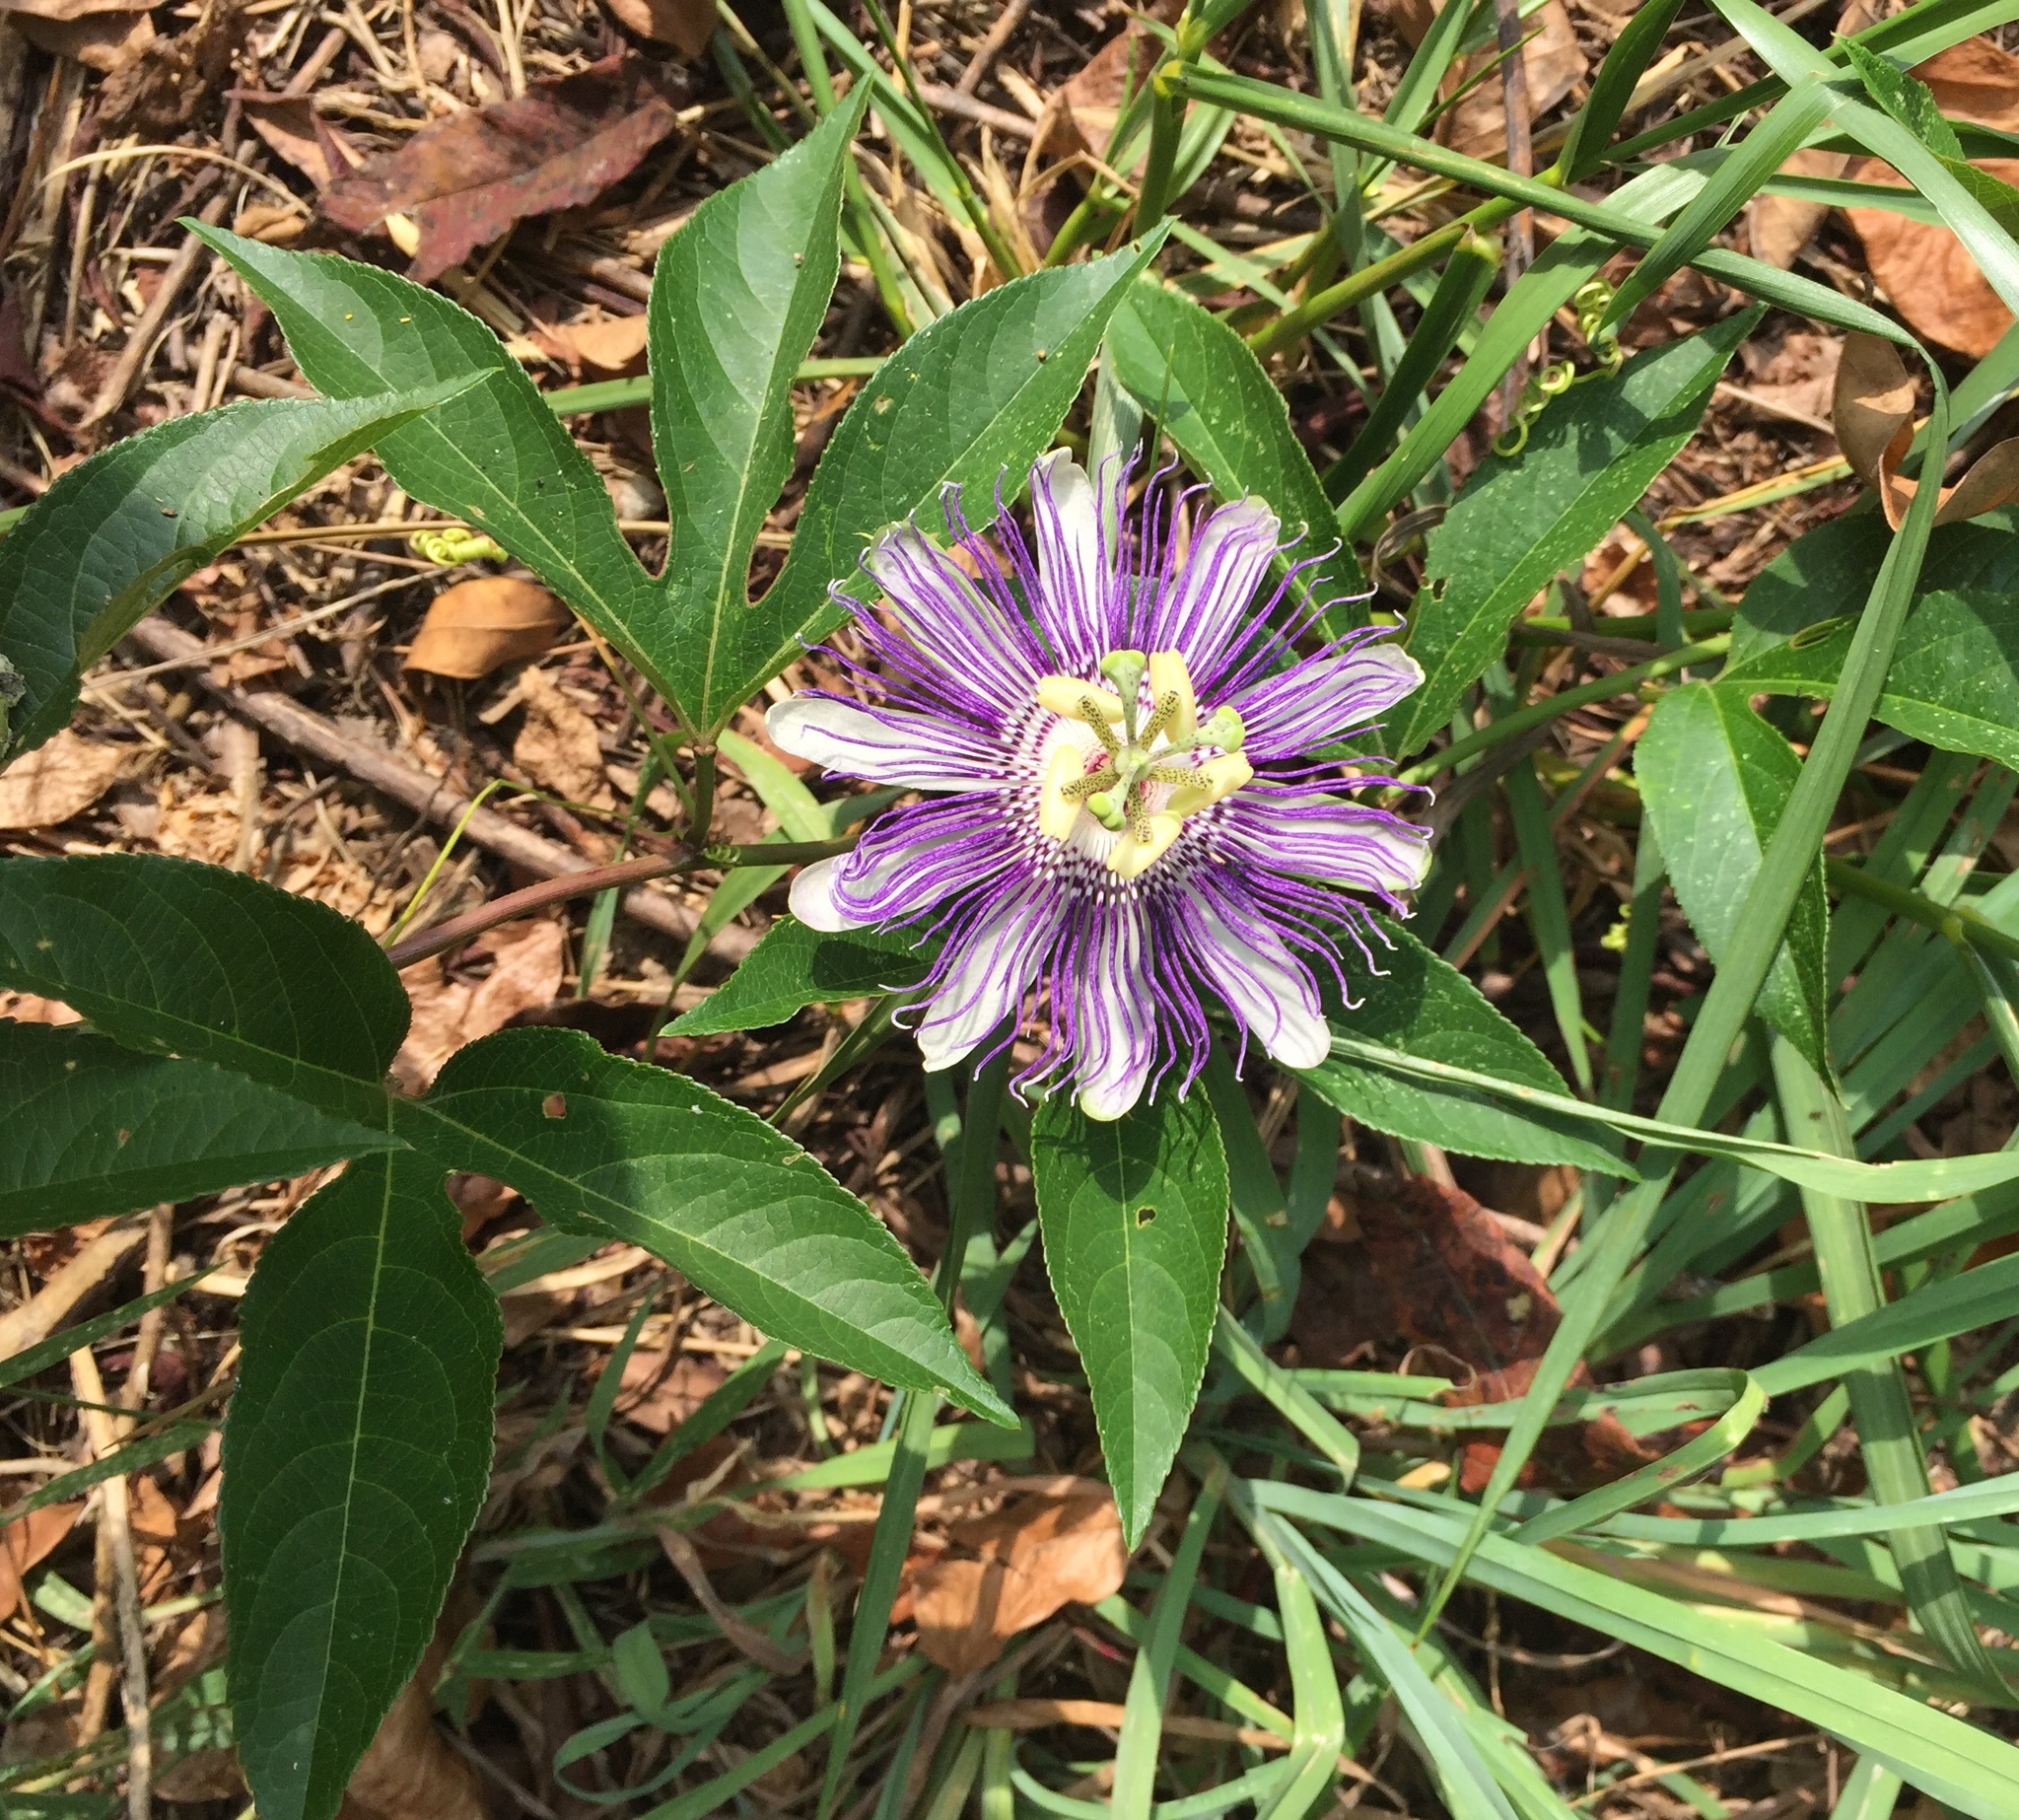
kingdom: Plantae
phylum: Tracheophyta
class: Magnoliopsida
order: Malpighiales
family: Passifloraceae
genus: Passiflora
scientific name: Passiflora incarnata
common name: Apricot-vine
